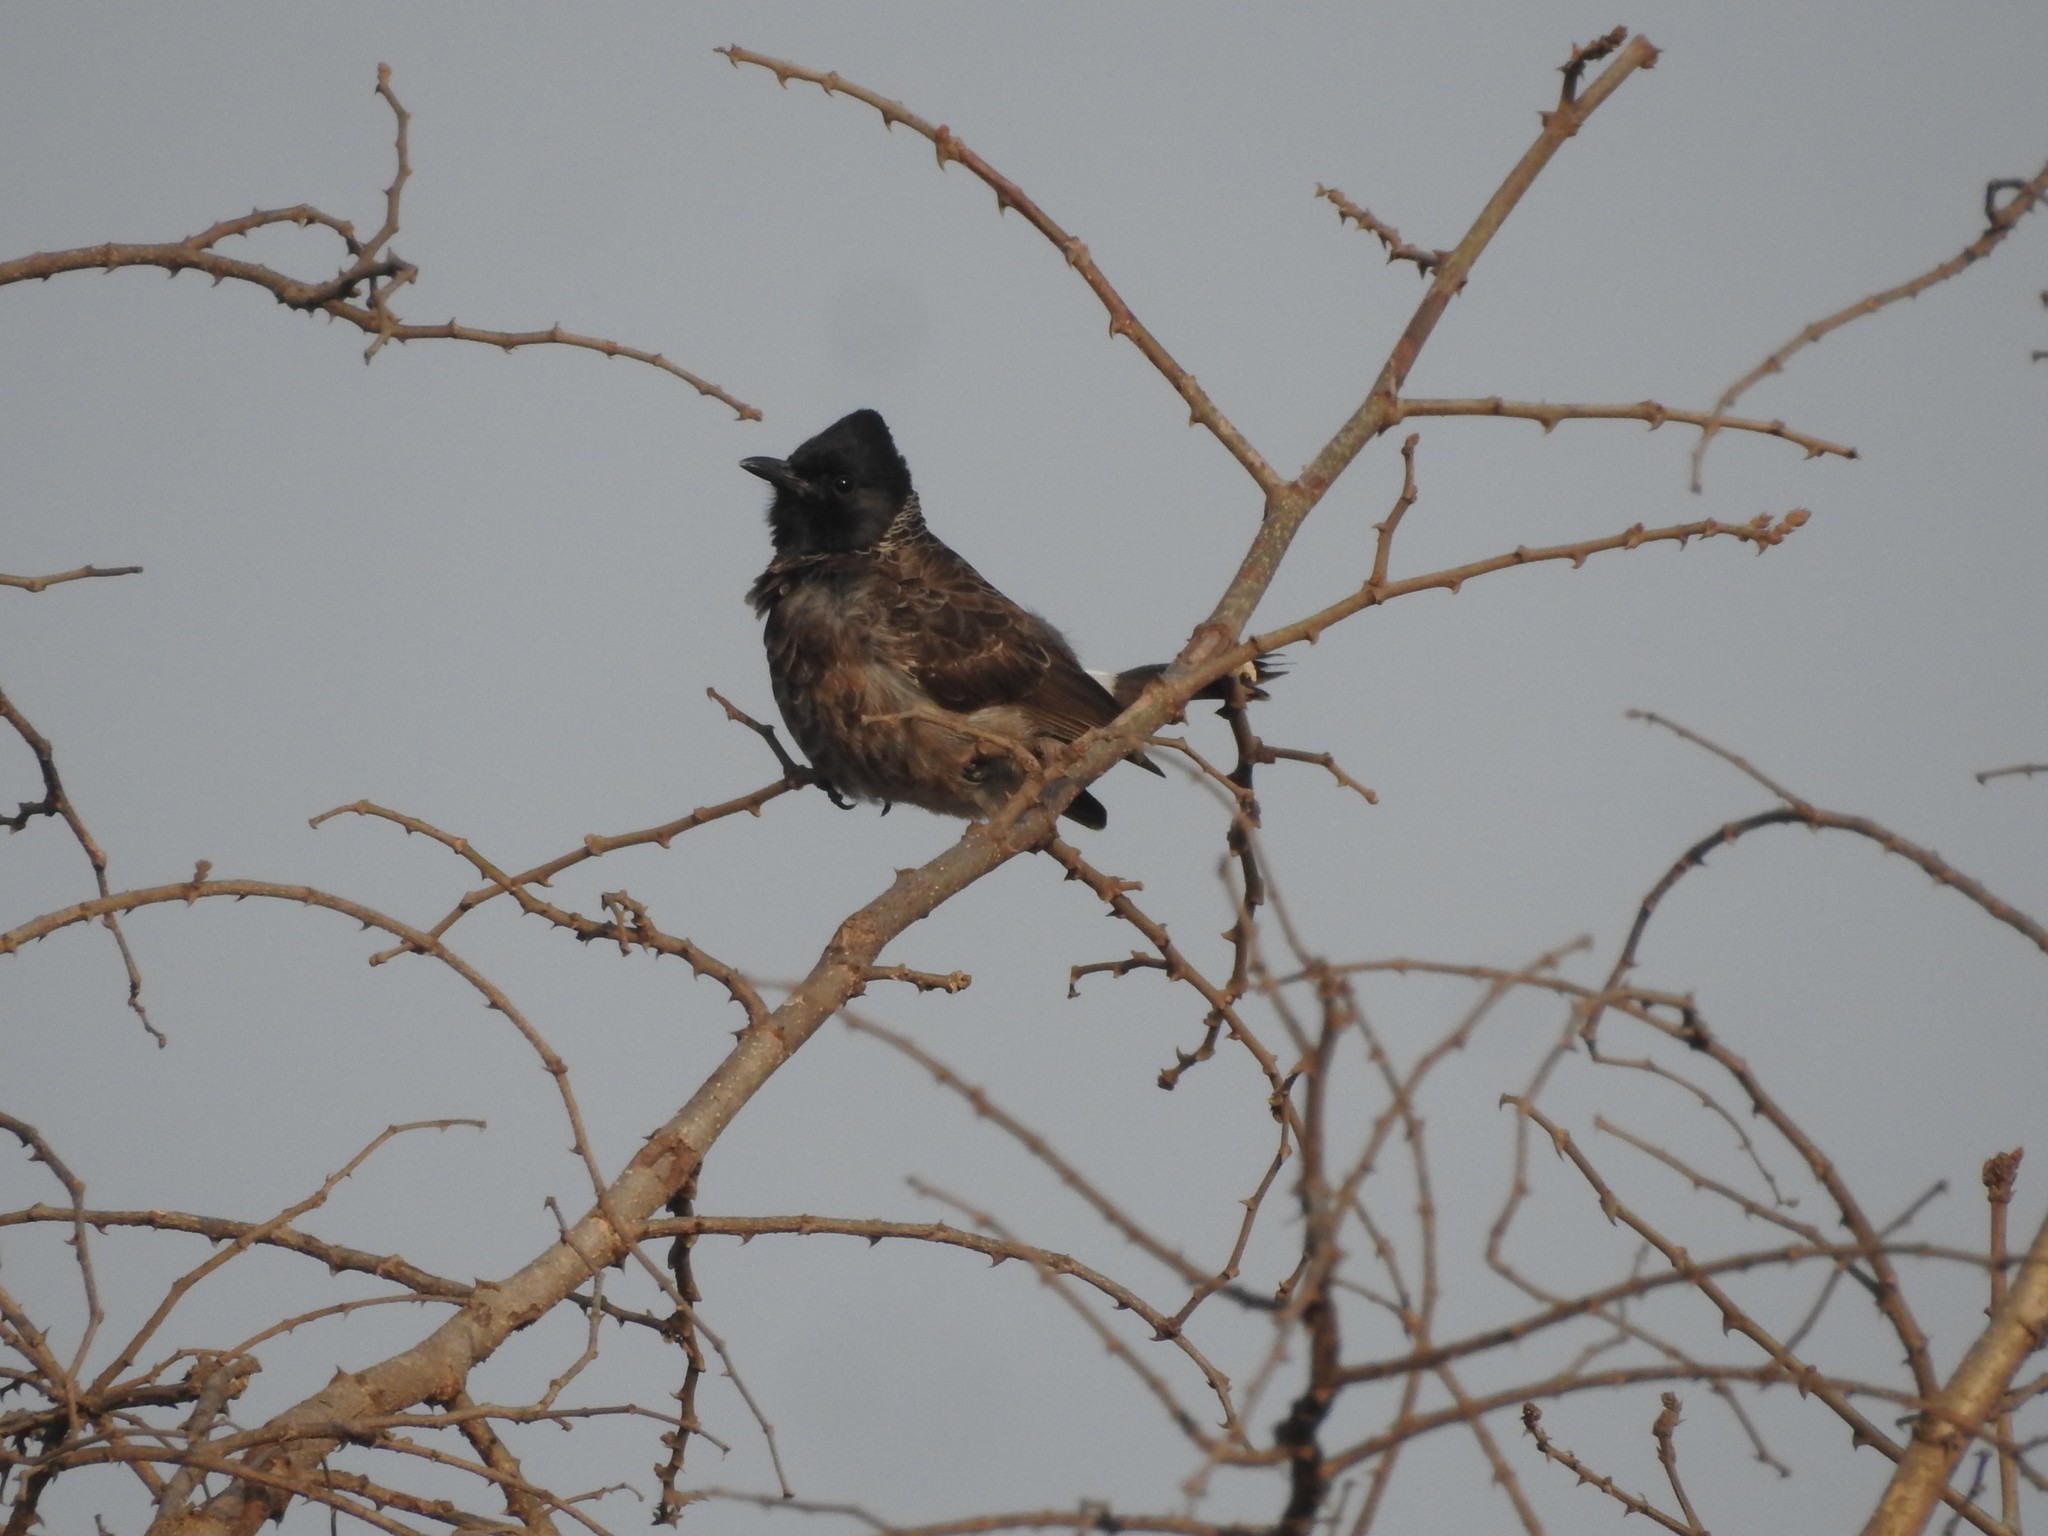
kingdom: Animalia
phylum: Chordata
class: Aves
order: Passeriformes
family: Pycnonotidae
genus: Pycnonotus
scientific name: Pycnonotus cafer
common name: Red-vented bulbul
